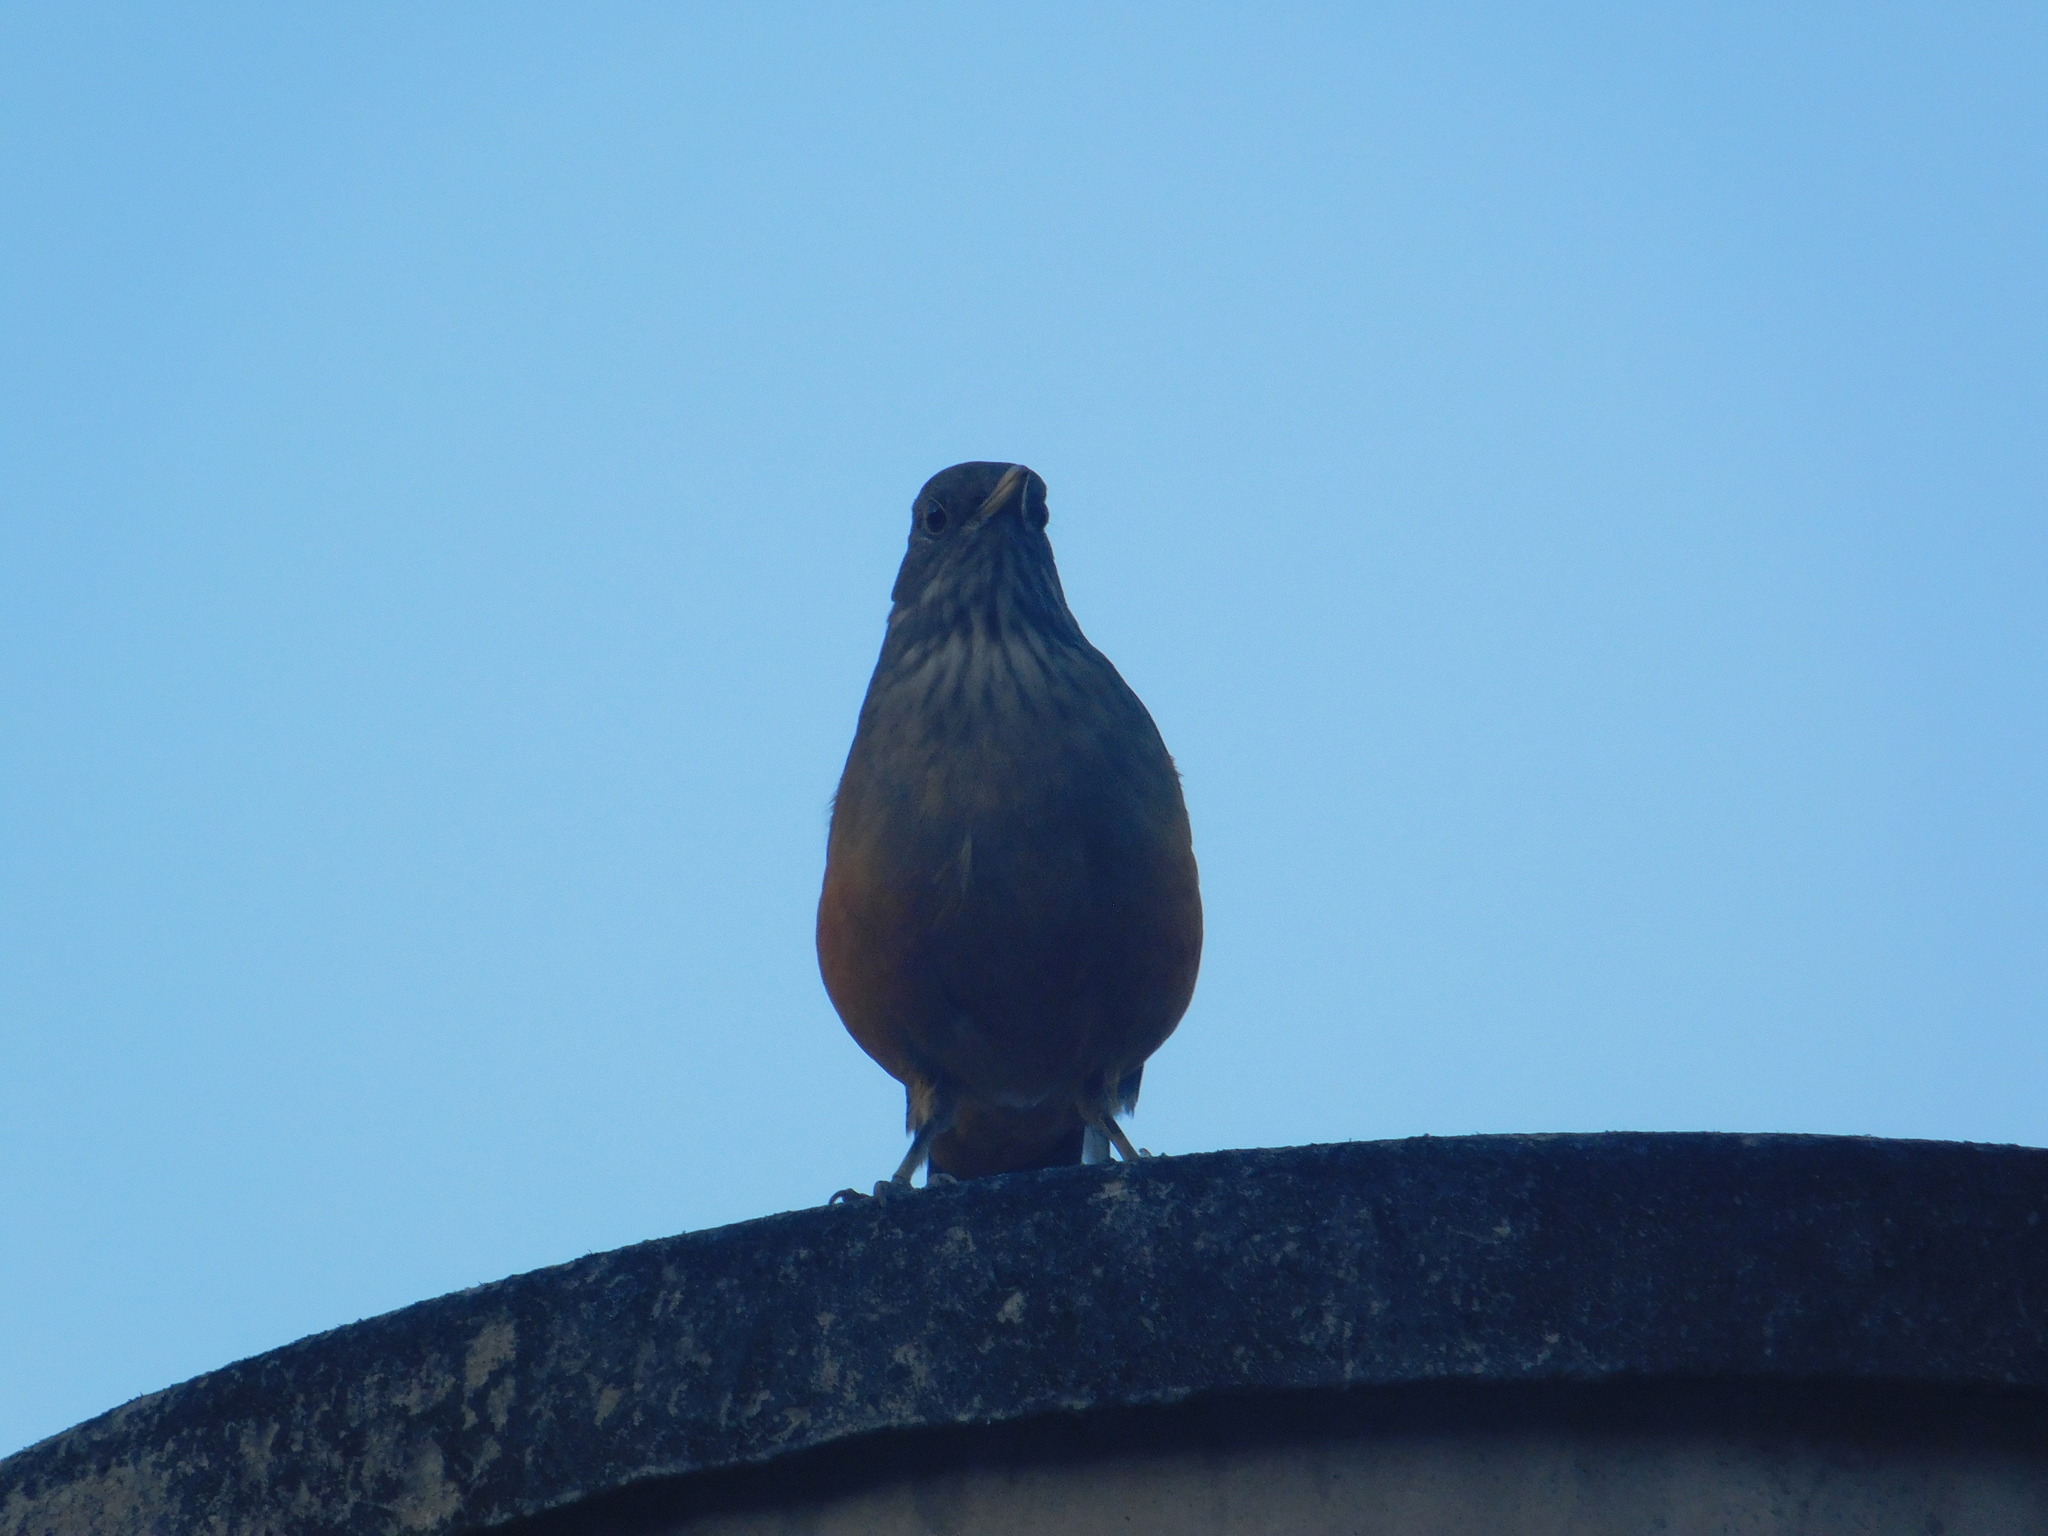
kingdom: Animalia
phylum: Chordata
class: Aves
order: Passeriformes
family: Turdidae
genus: Turdus
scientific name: Turdus rufiventris
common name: Rufous-bellied thrush
